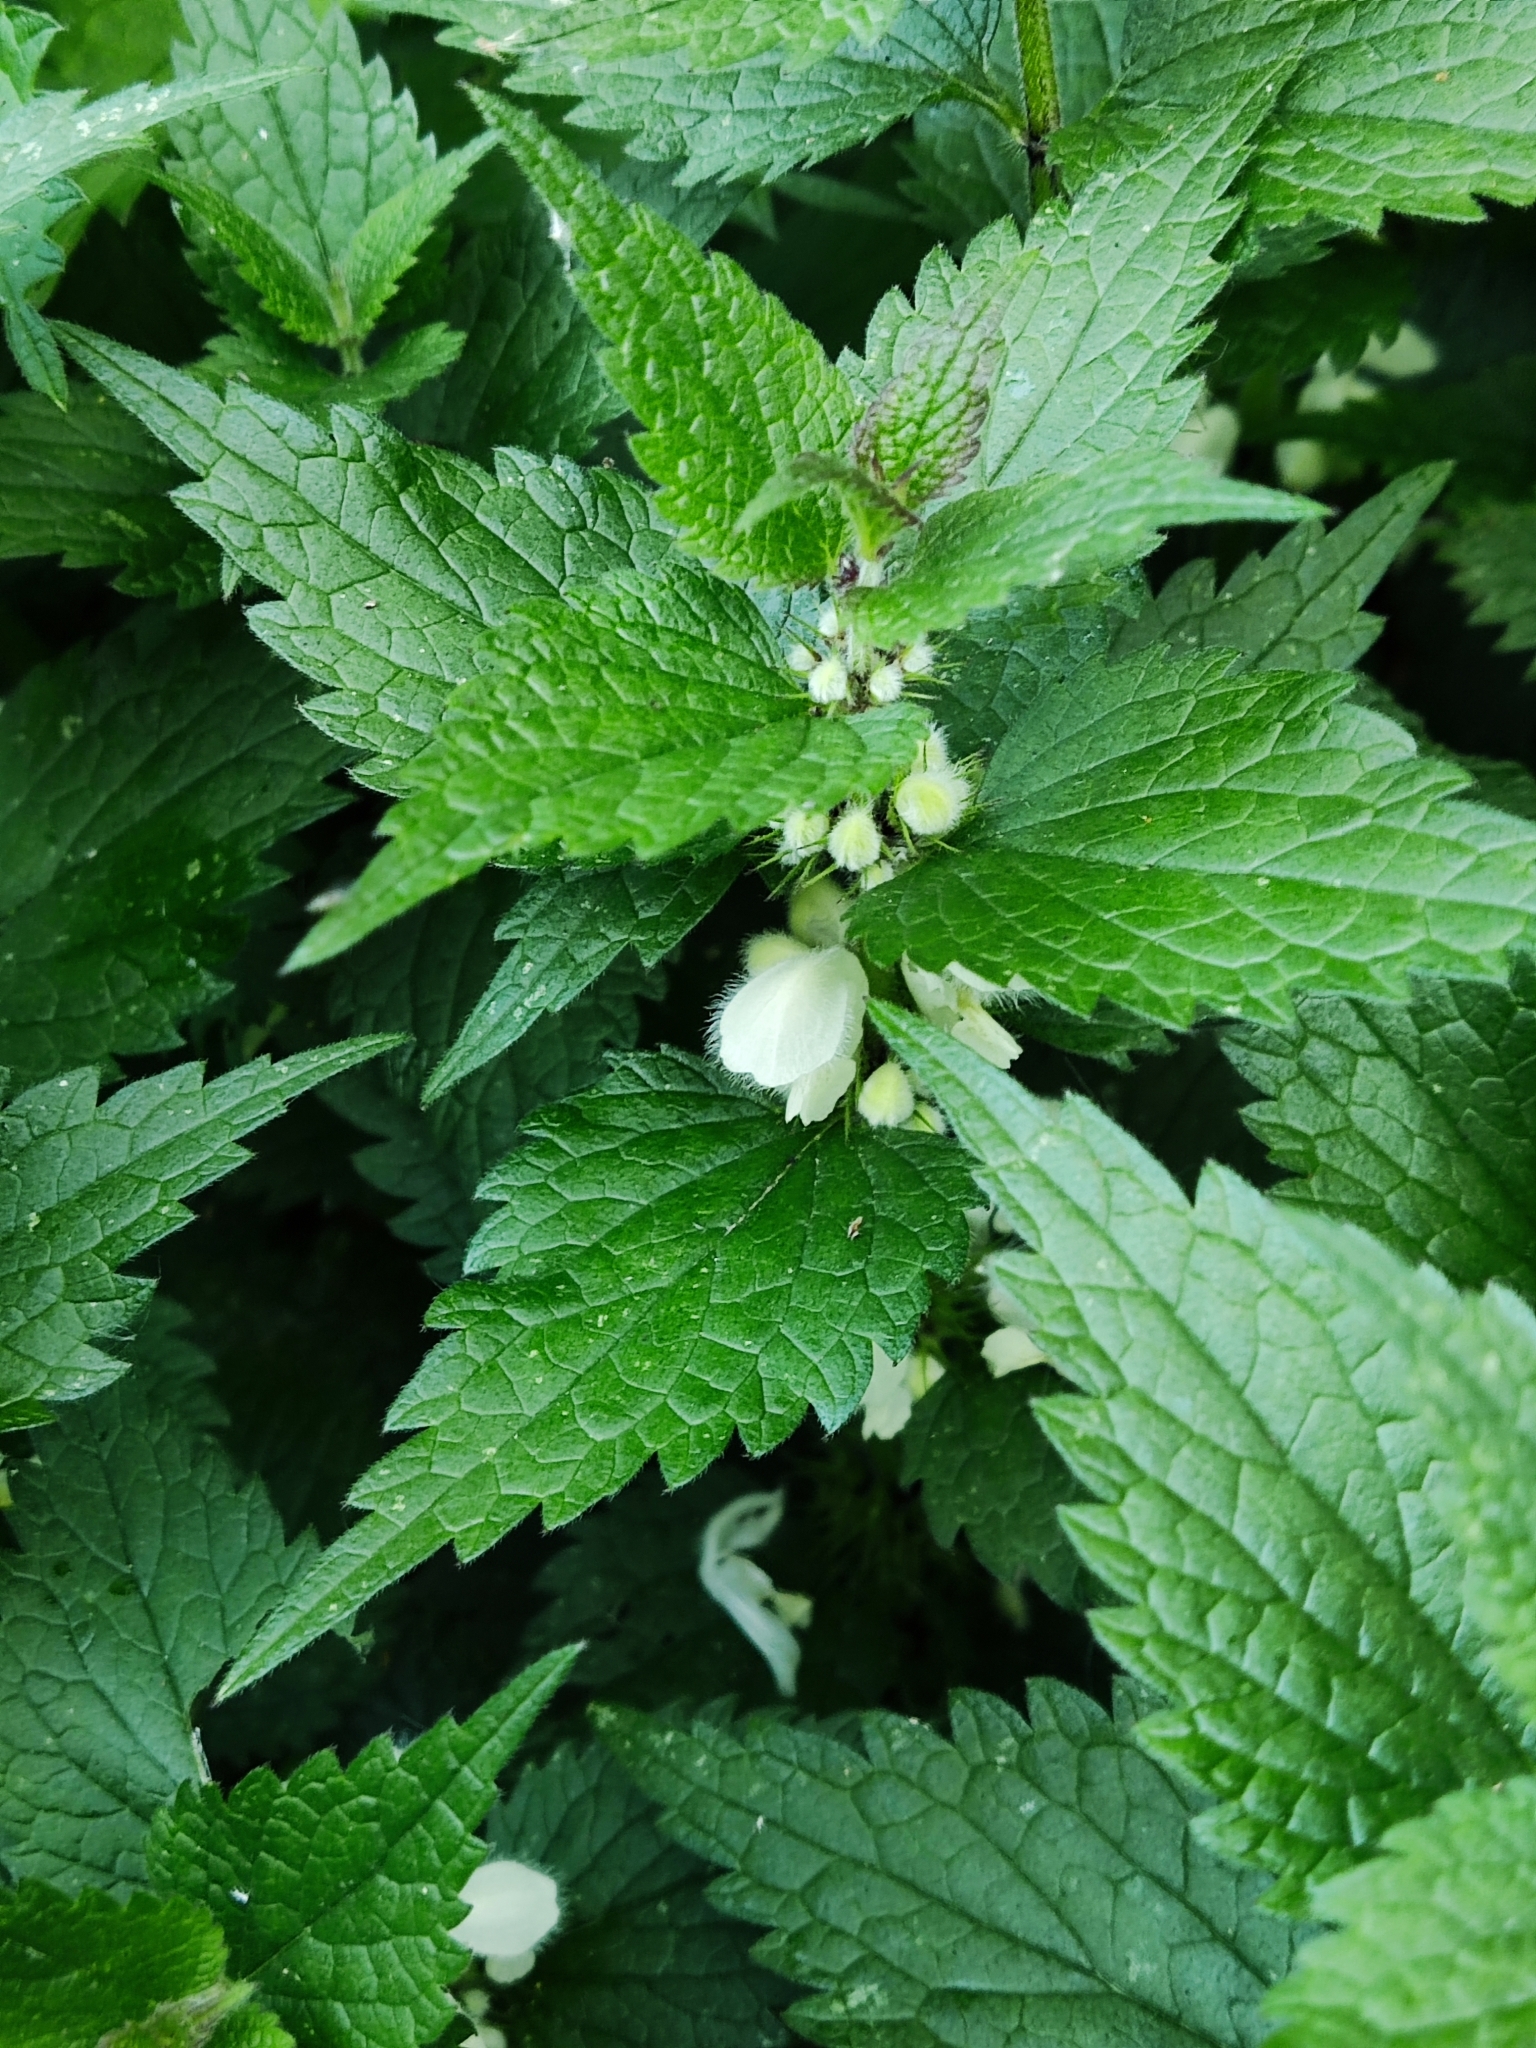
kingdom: Plantae
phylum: Tracheophyta
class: Magnoliopsida
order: Lamiales
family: Lamiaceae
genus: Lamium
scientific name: Lamium album
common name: White dead-nettle
